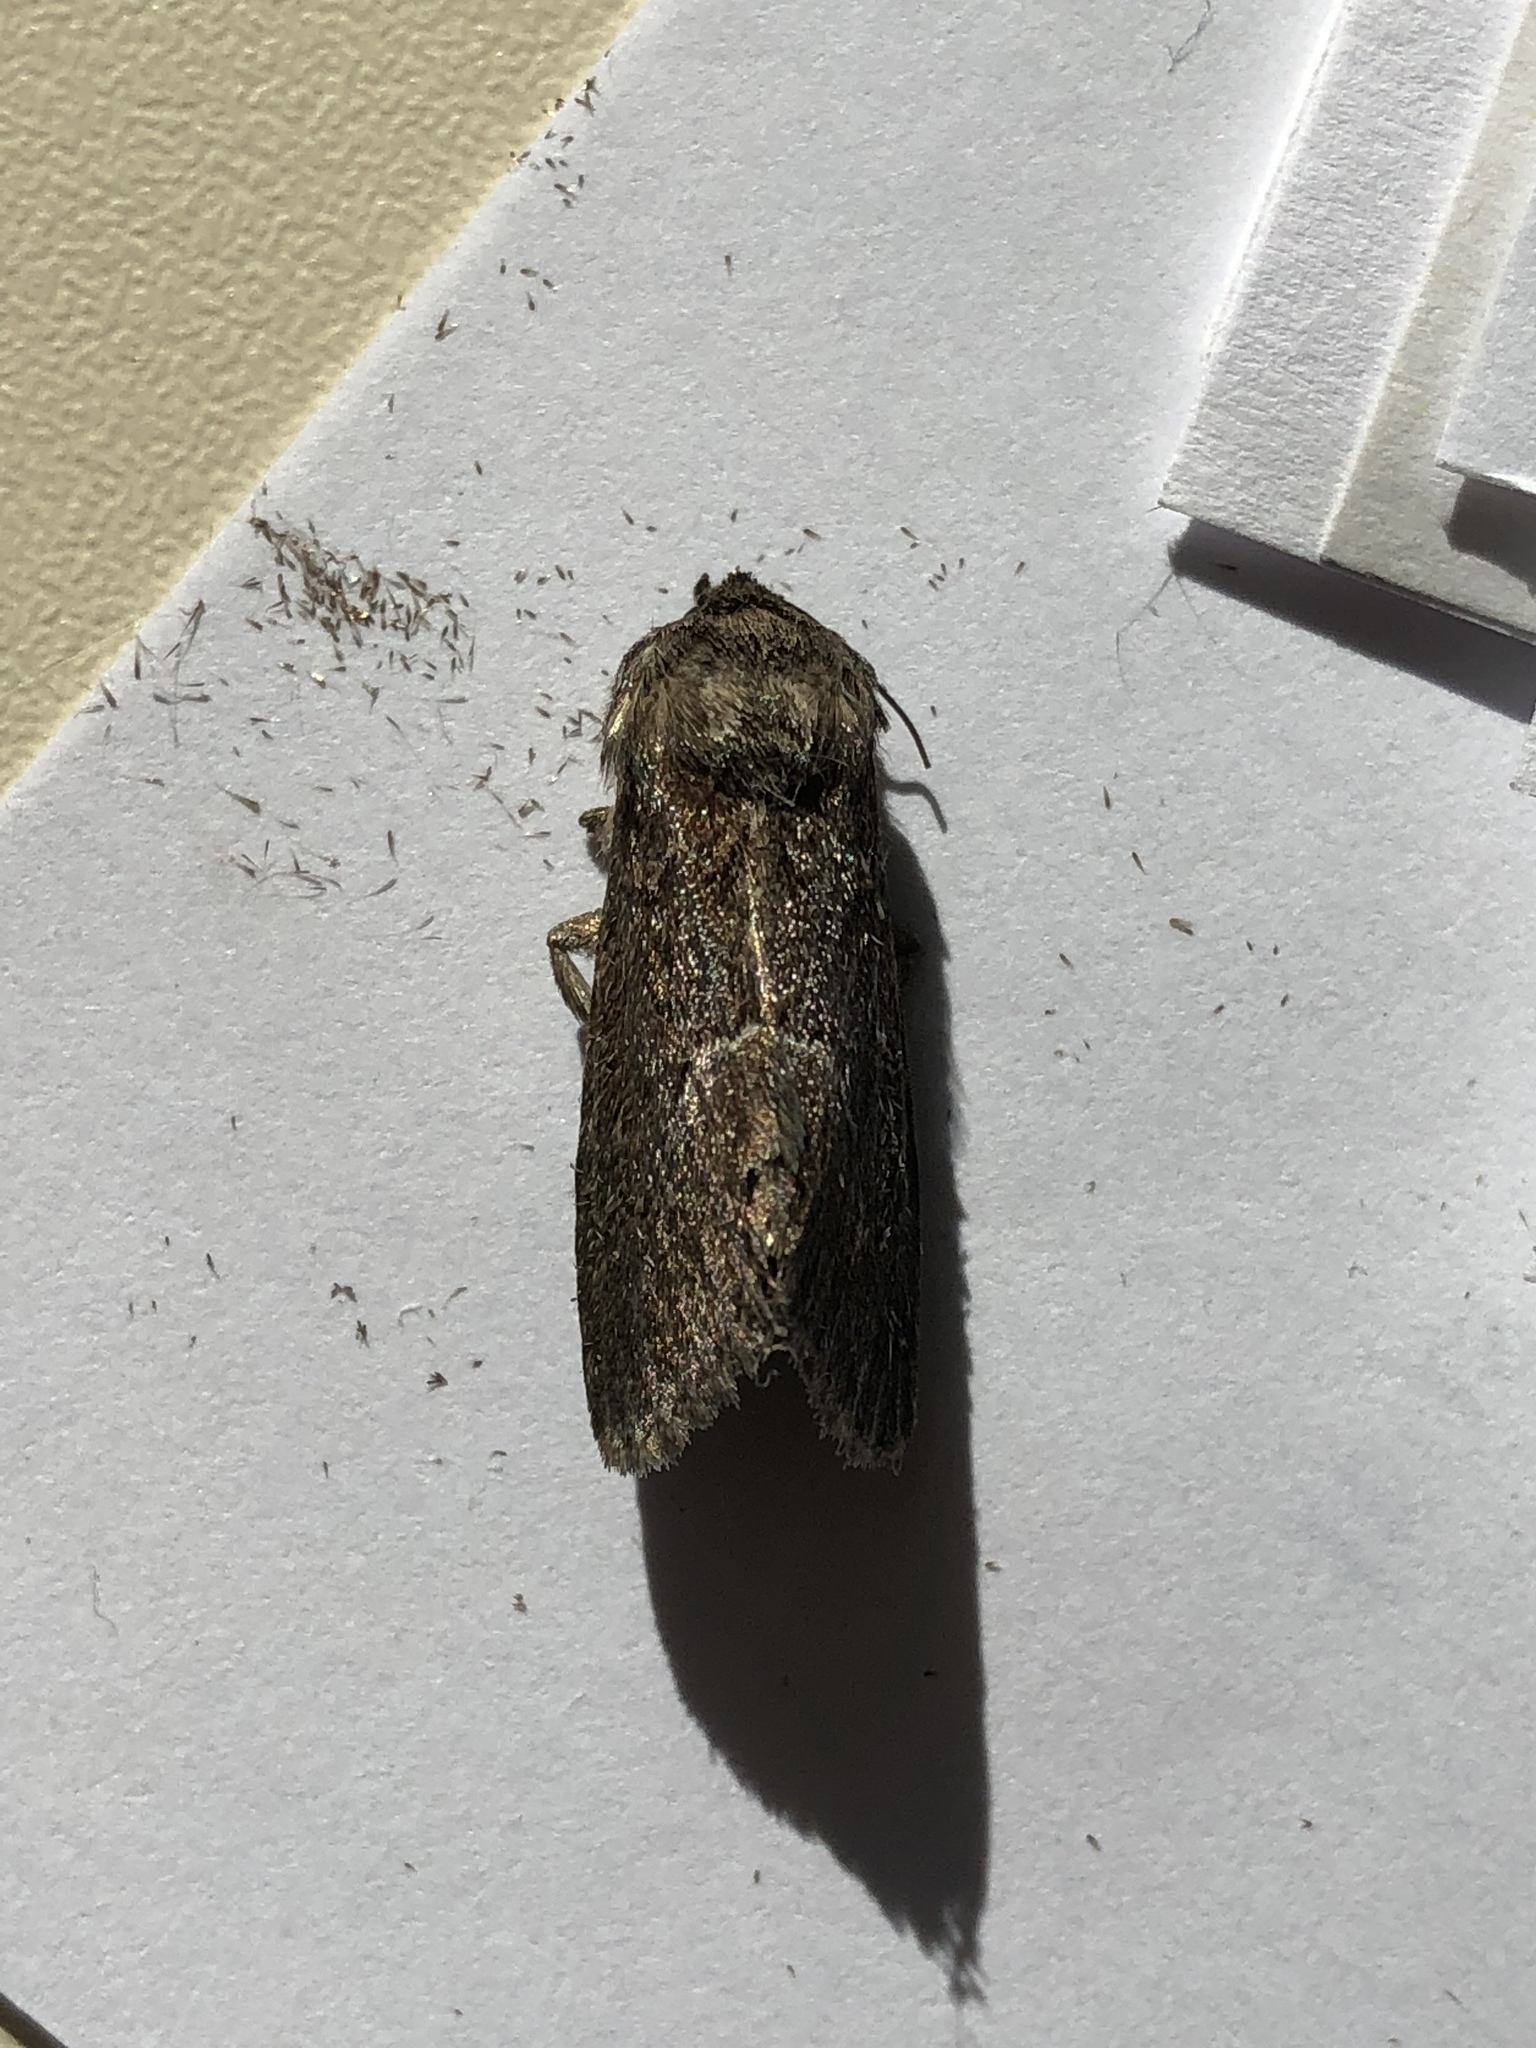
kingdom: Animalia
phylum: Arthropoda
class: Insecta
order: Lepidoptera
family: Noctuidae
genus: Thalpophila
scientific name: Thalpophila matura
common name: Straw underwing
